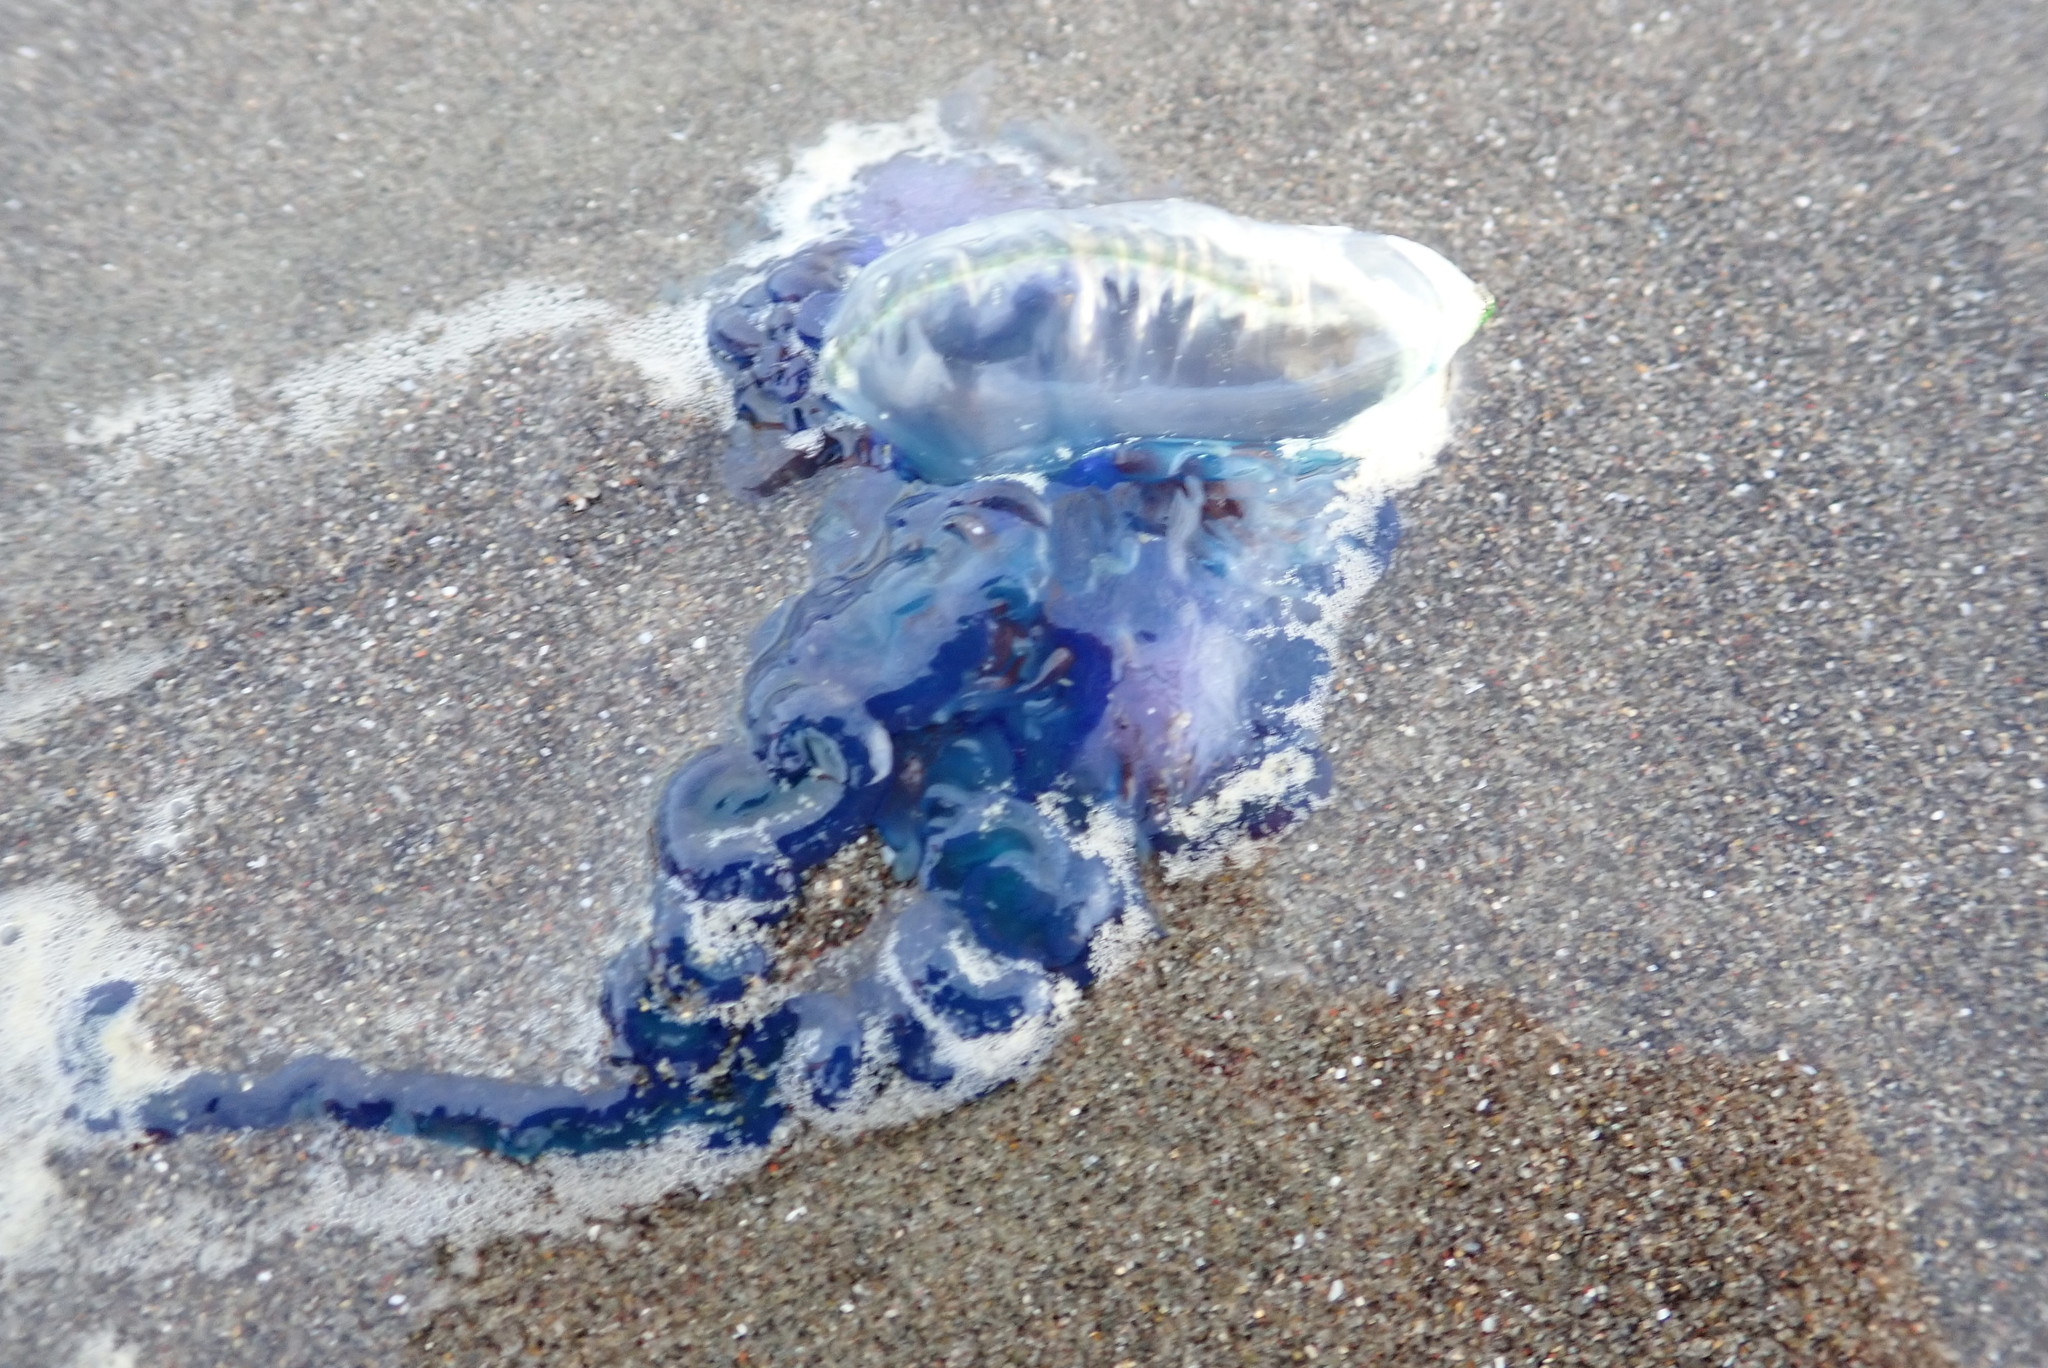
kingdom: Animalia
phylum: Cnidaria
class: Hydrozoa
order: Siphonophorae
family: Physaliidae
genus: Physalia
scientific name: Physalia physalis
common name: Portuguese man-of-war
